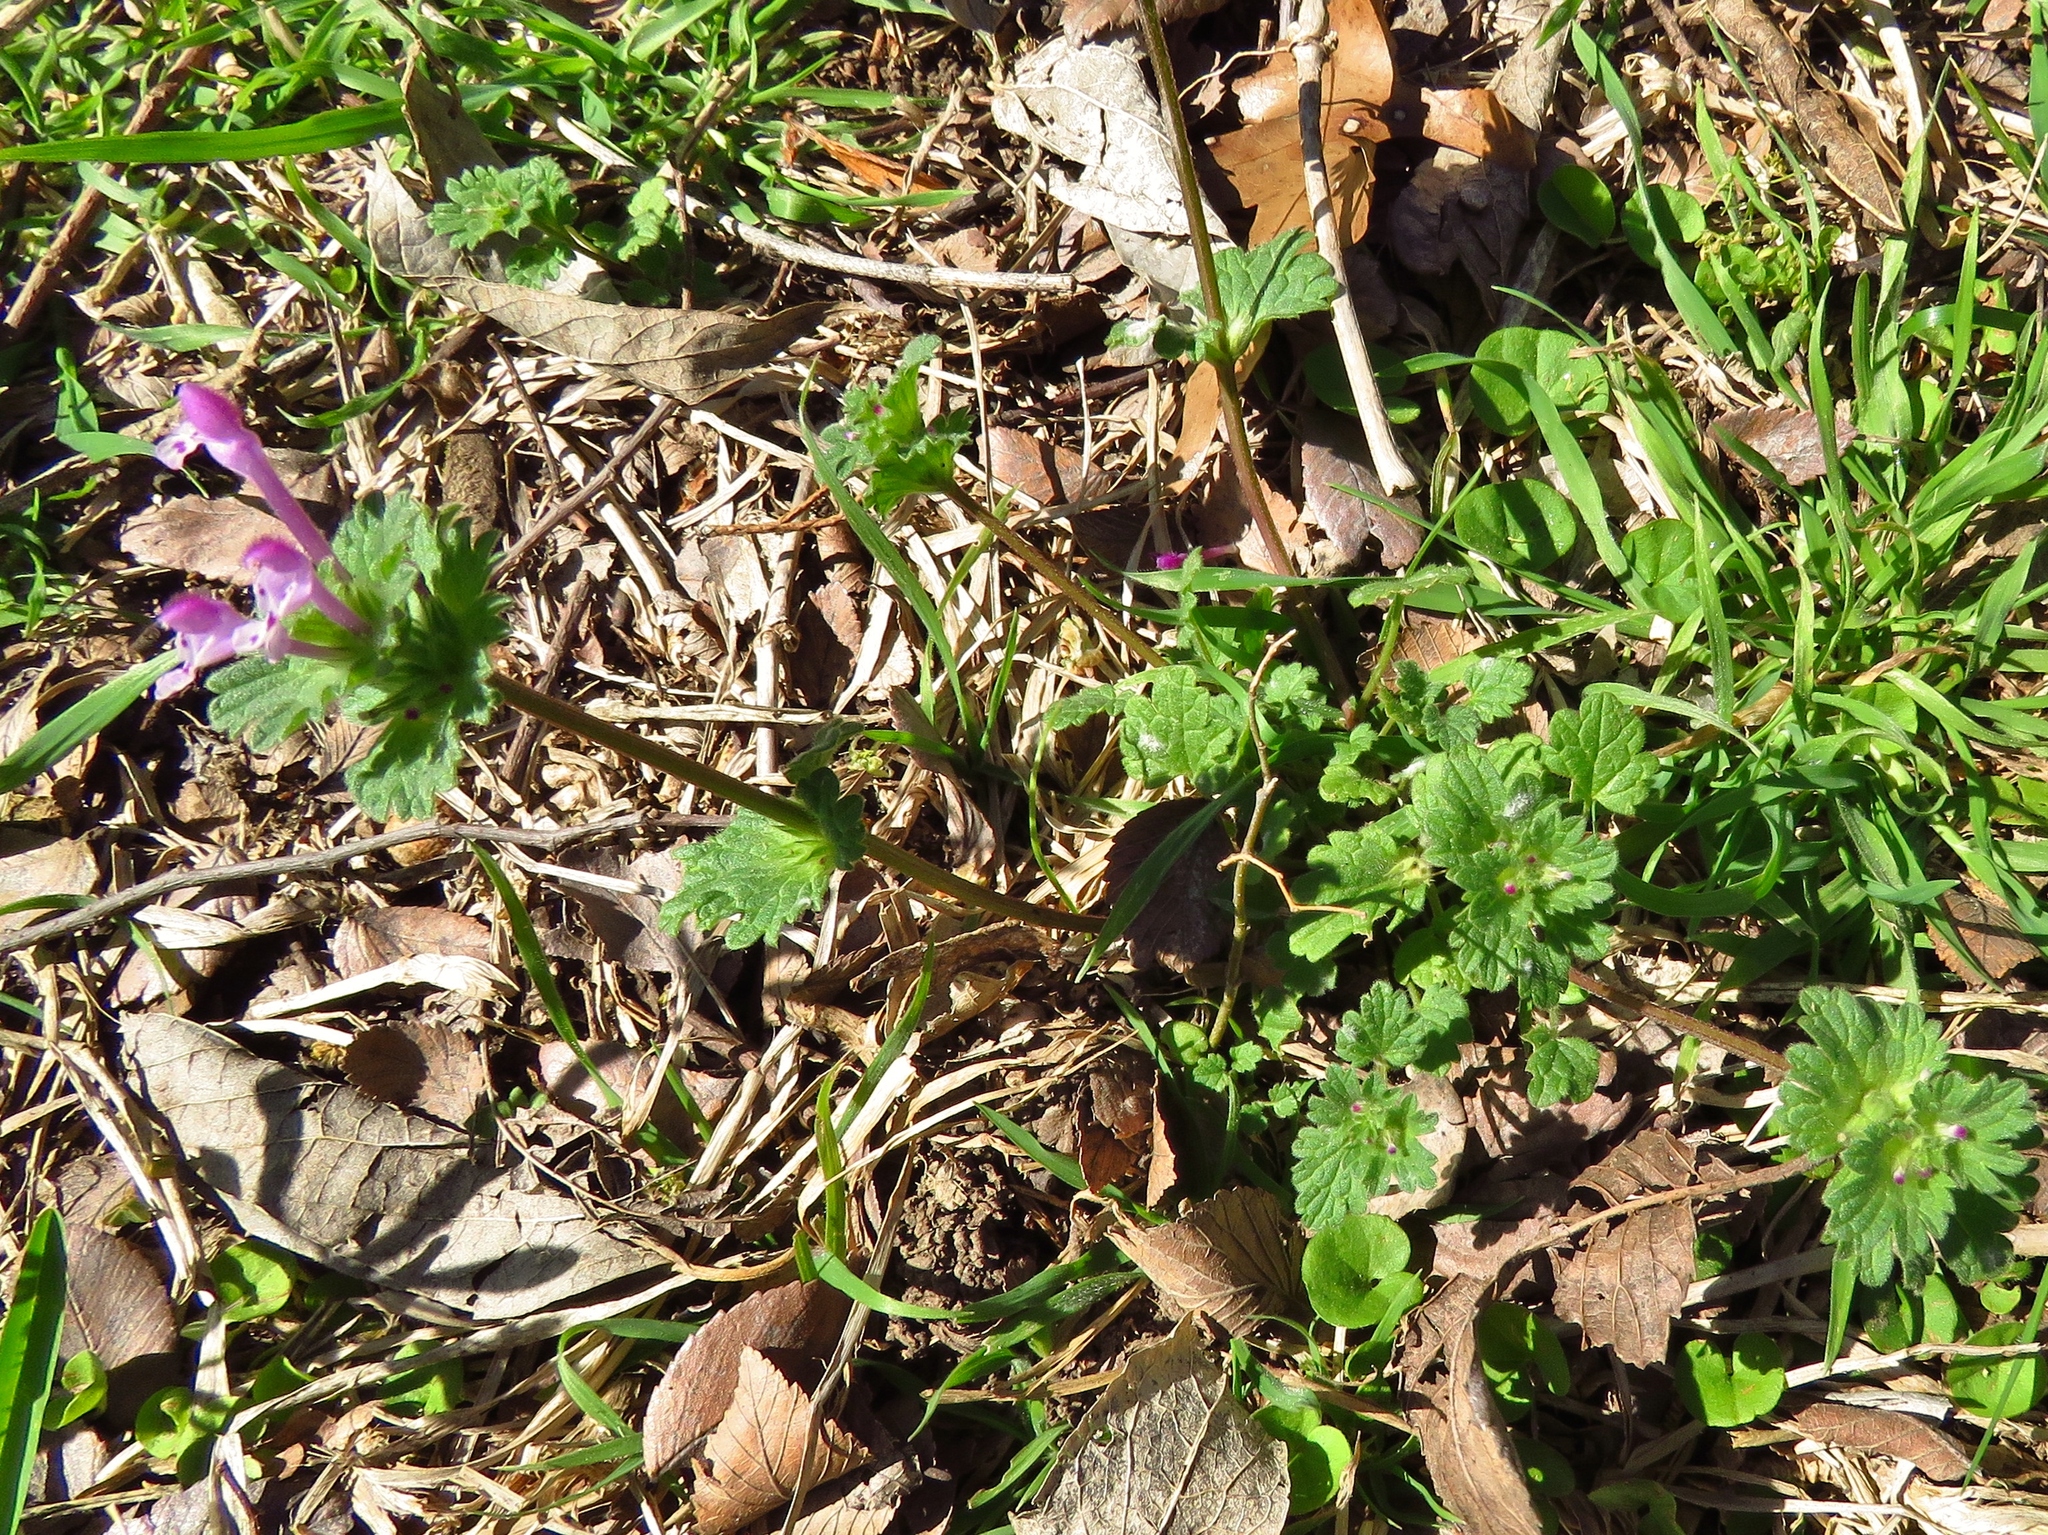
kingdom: Plantae
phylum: Tracheophyta
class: Magnoliopsida
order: Lamiales
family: Lamiaceae
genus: Lamium
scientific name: Lamium amplexicaule
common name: Henbit dead-nettle
